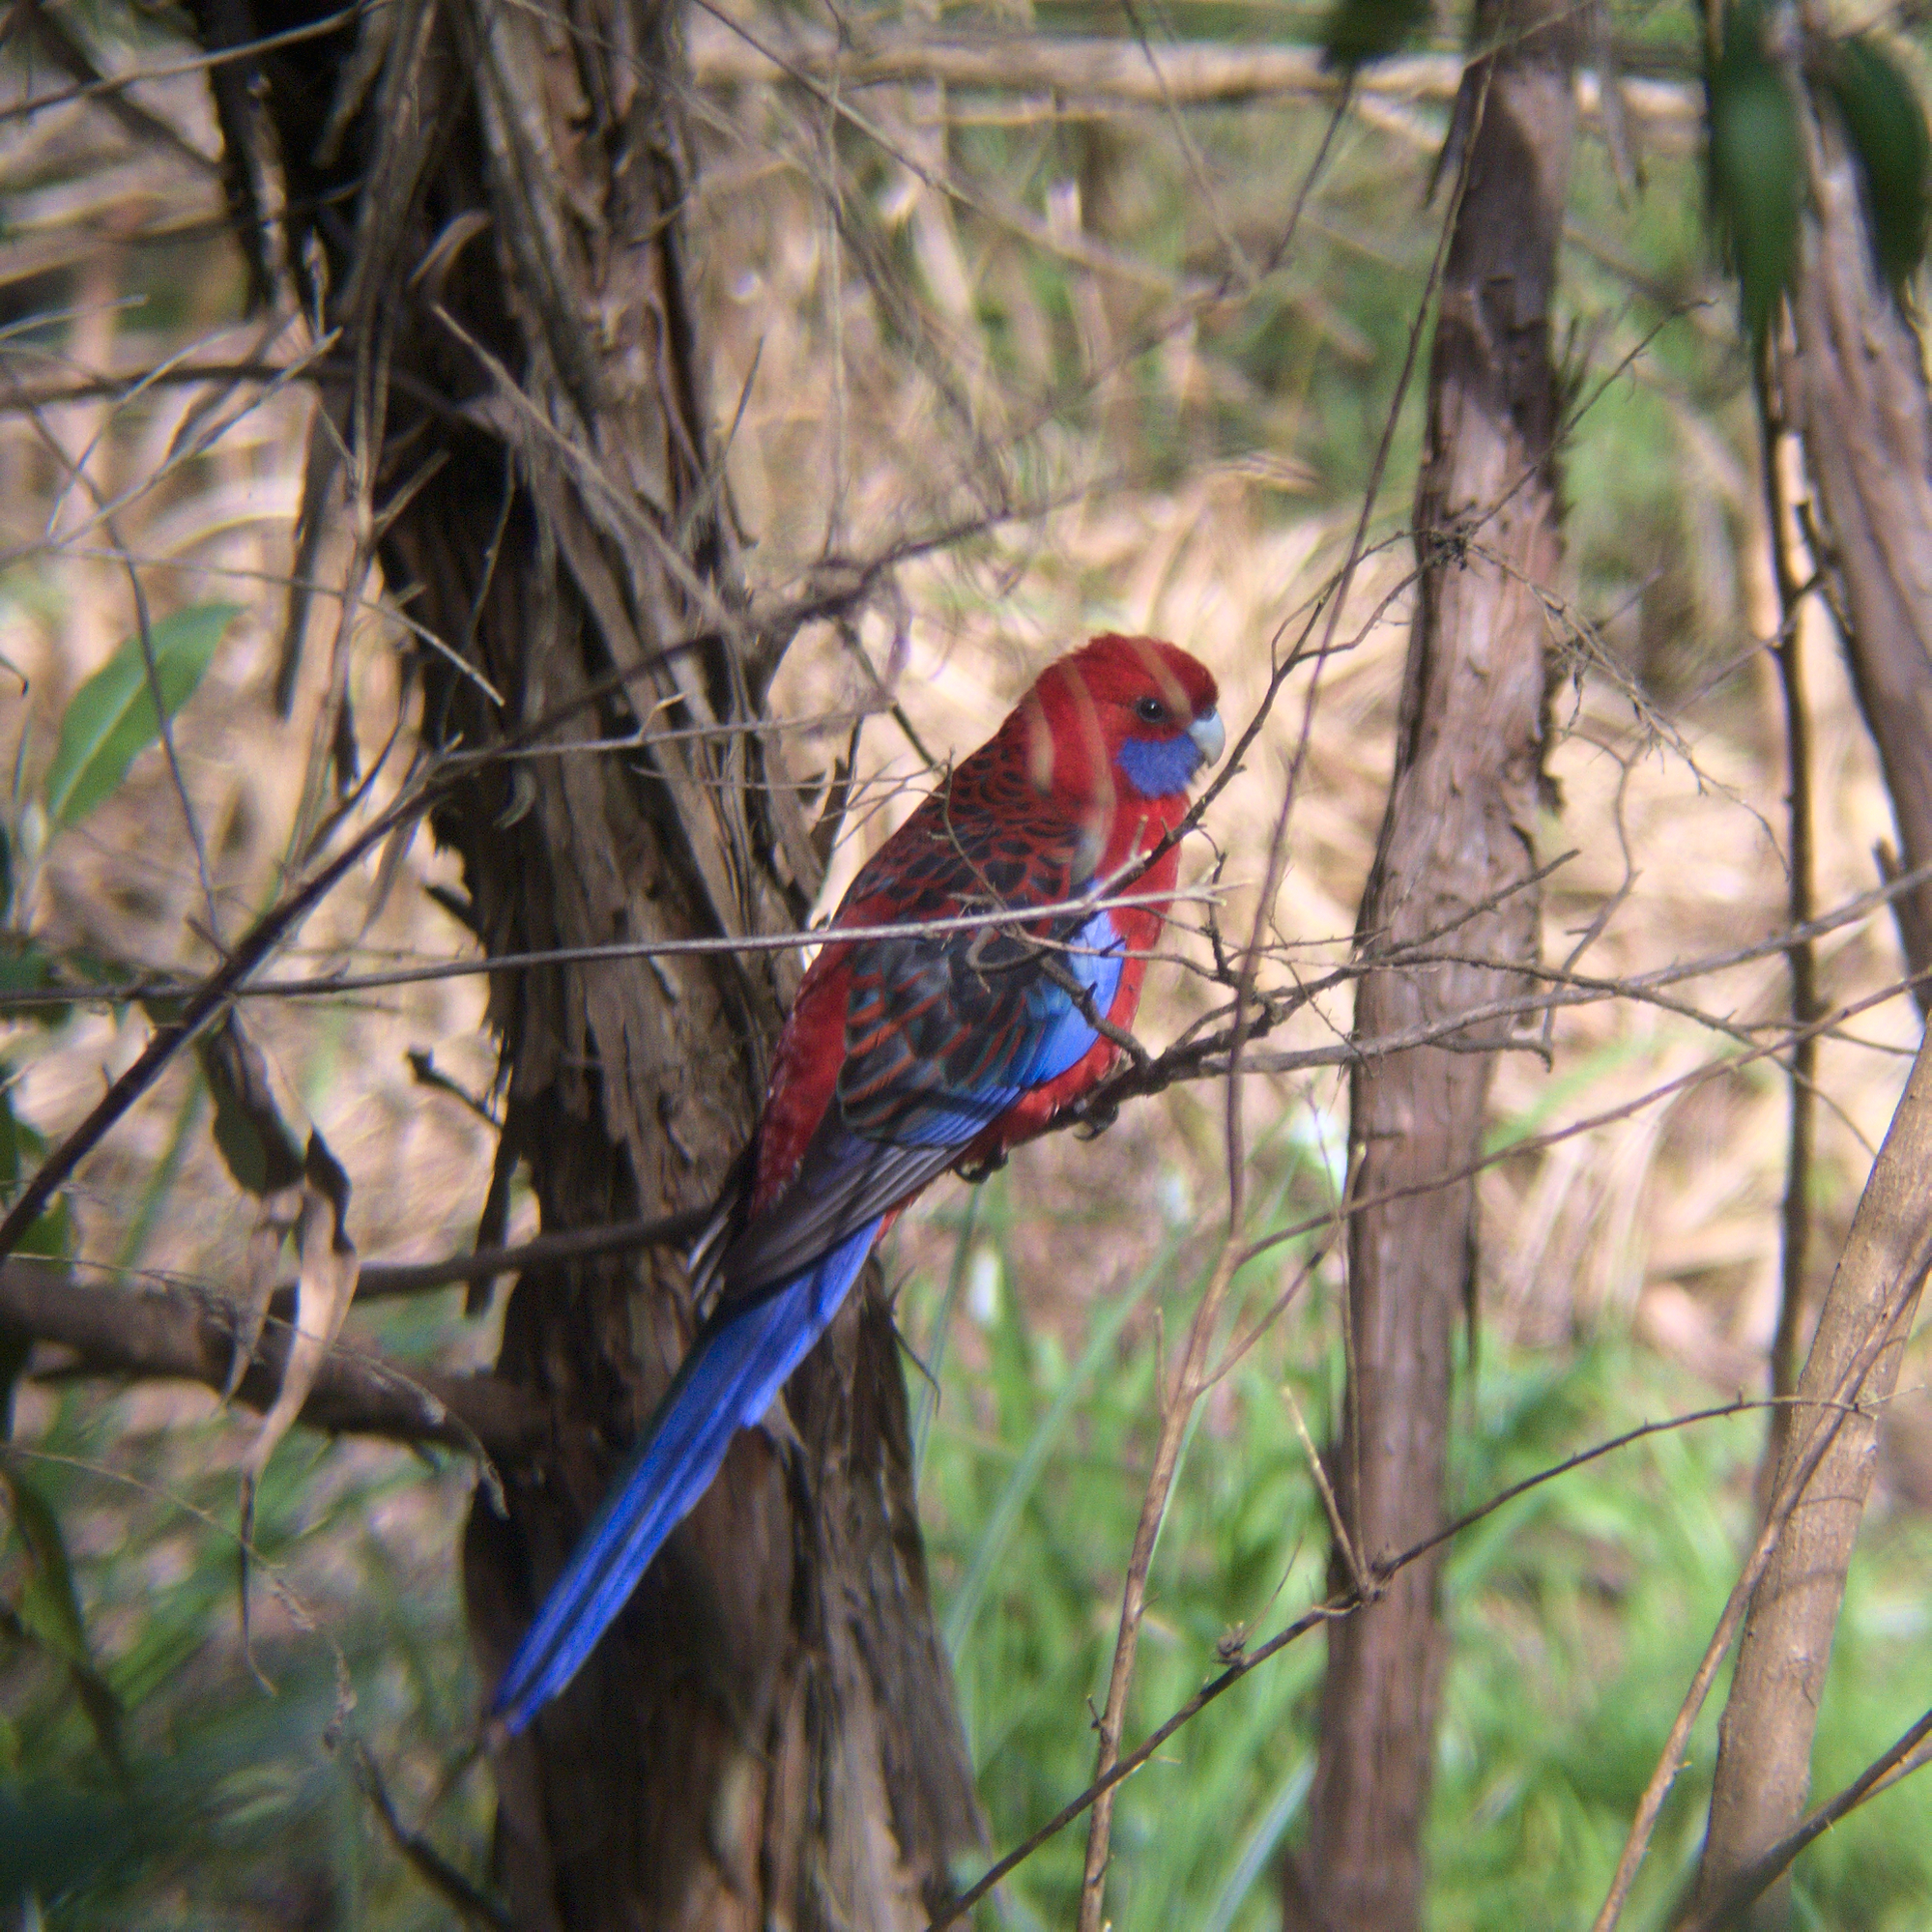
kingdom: Animalia
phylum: Chordata
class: Aves
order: Psittaciformes
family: Psittacidae
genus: Platycercus
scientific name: Platycercus elegans
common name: Crimson rosella
